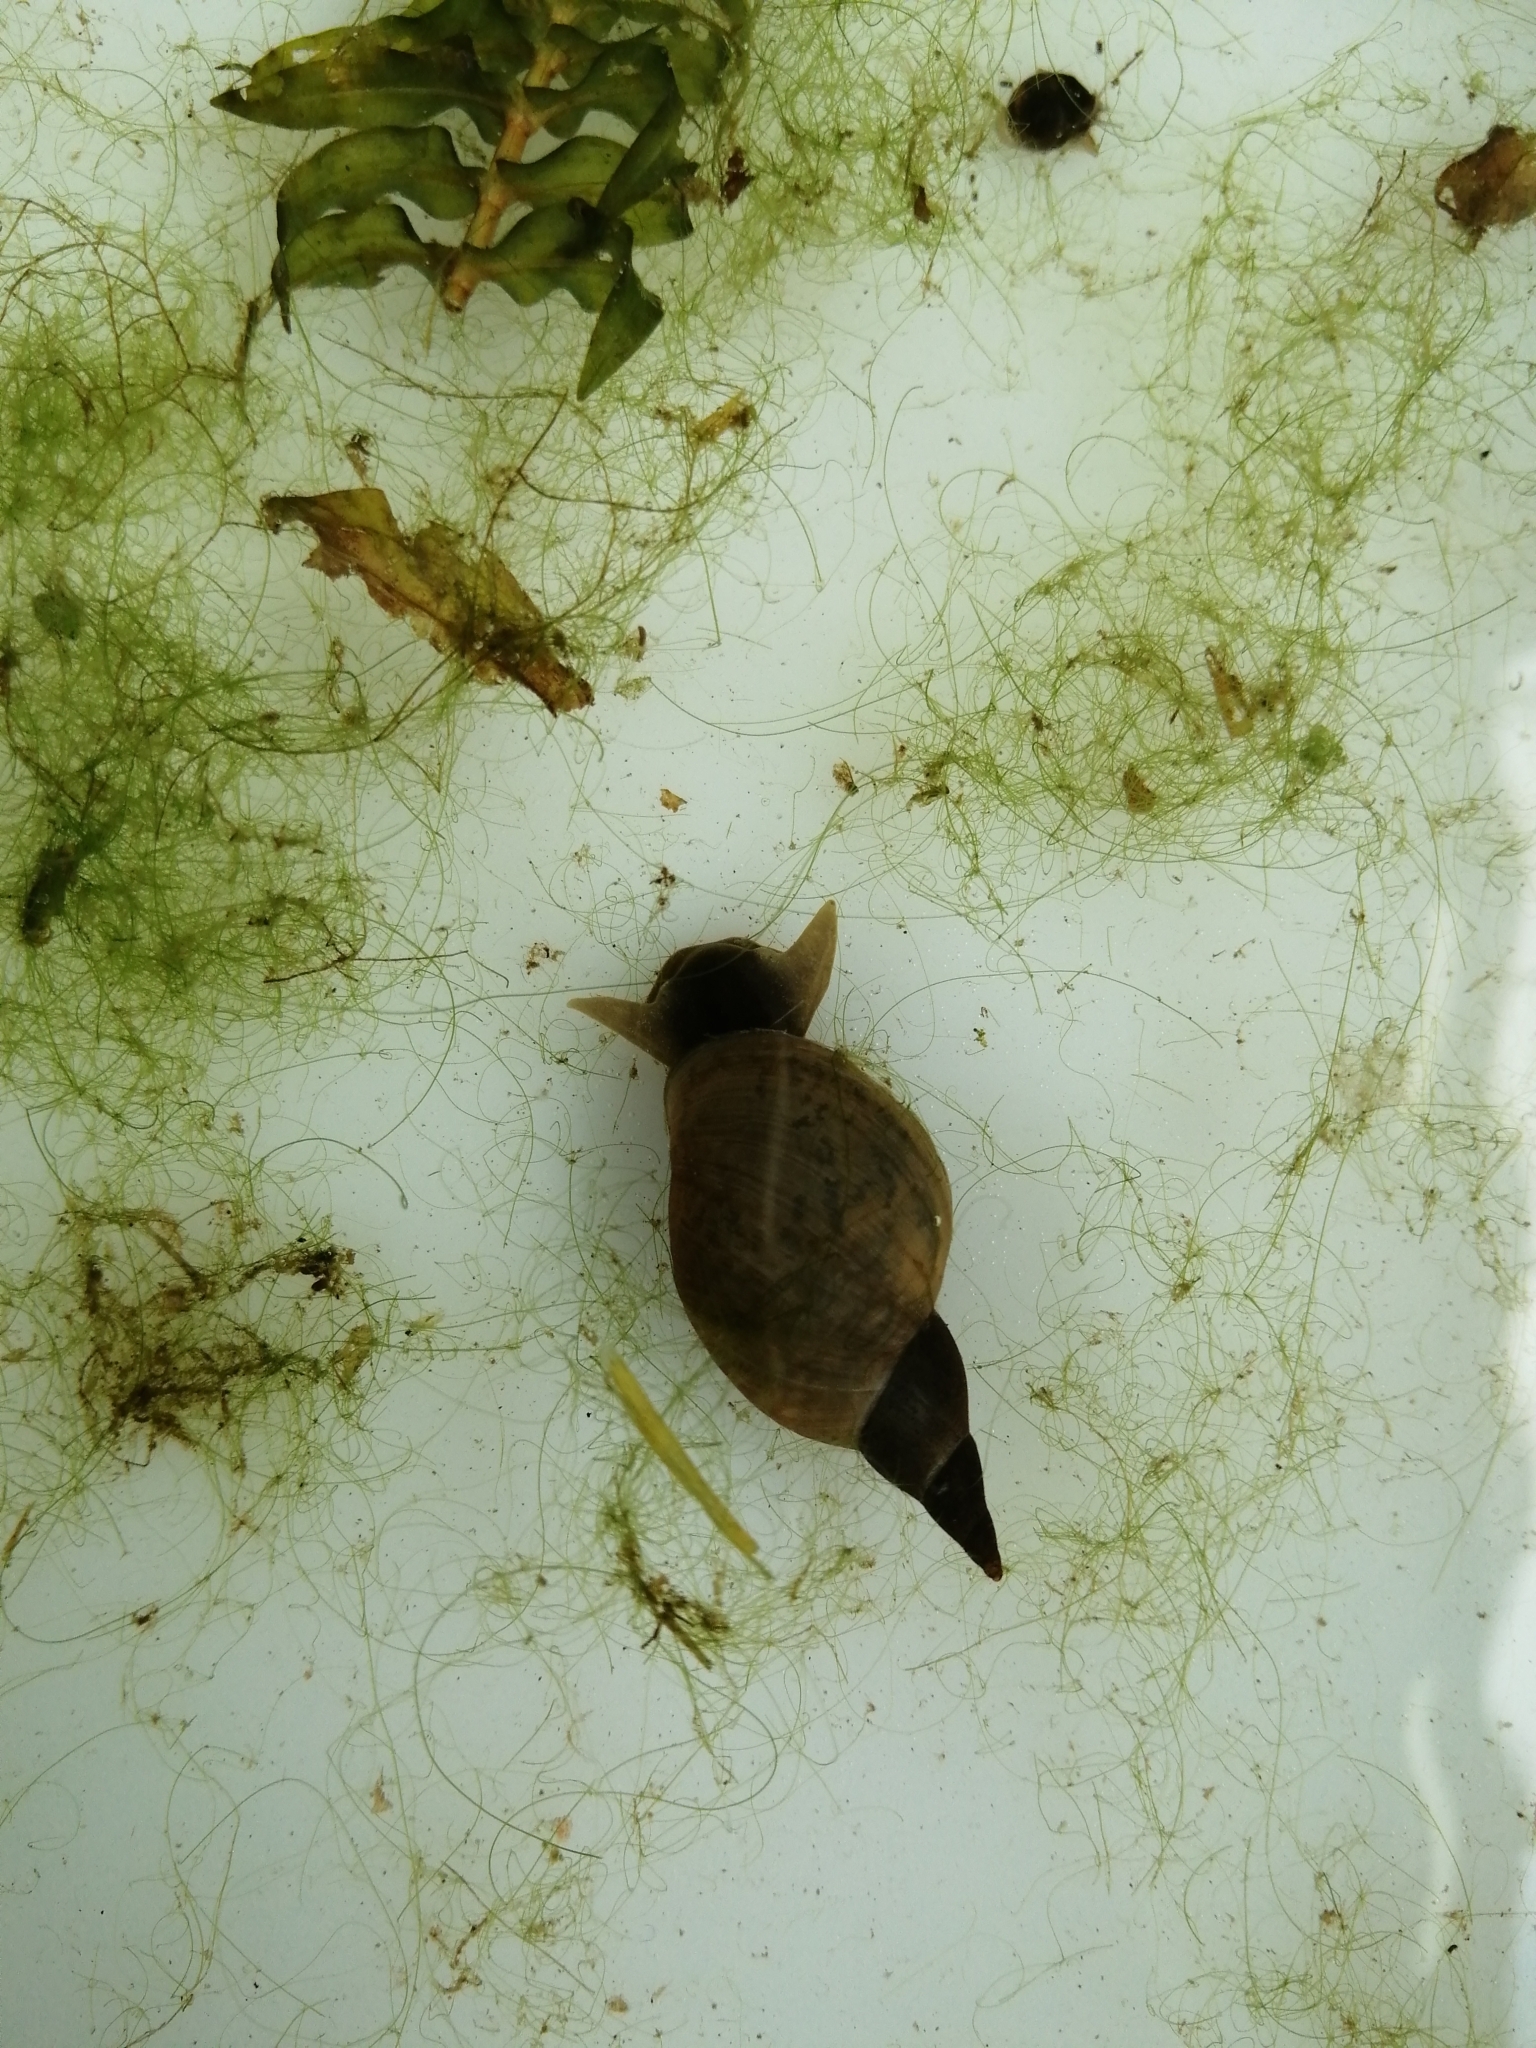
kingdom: Animalia
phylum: Mollusca
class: Gastropoda
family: Lymnaeidae
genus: Lymnaea
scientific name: Lymnaea stagnalis
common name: Great pond snail
